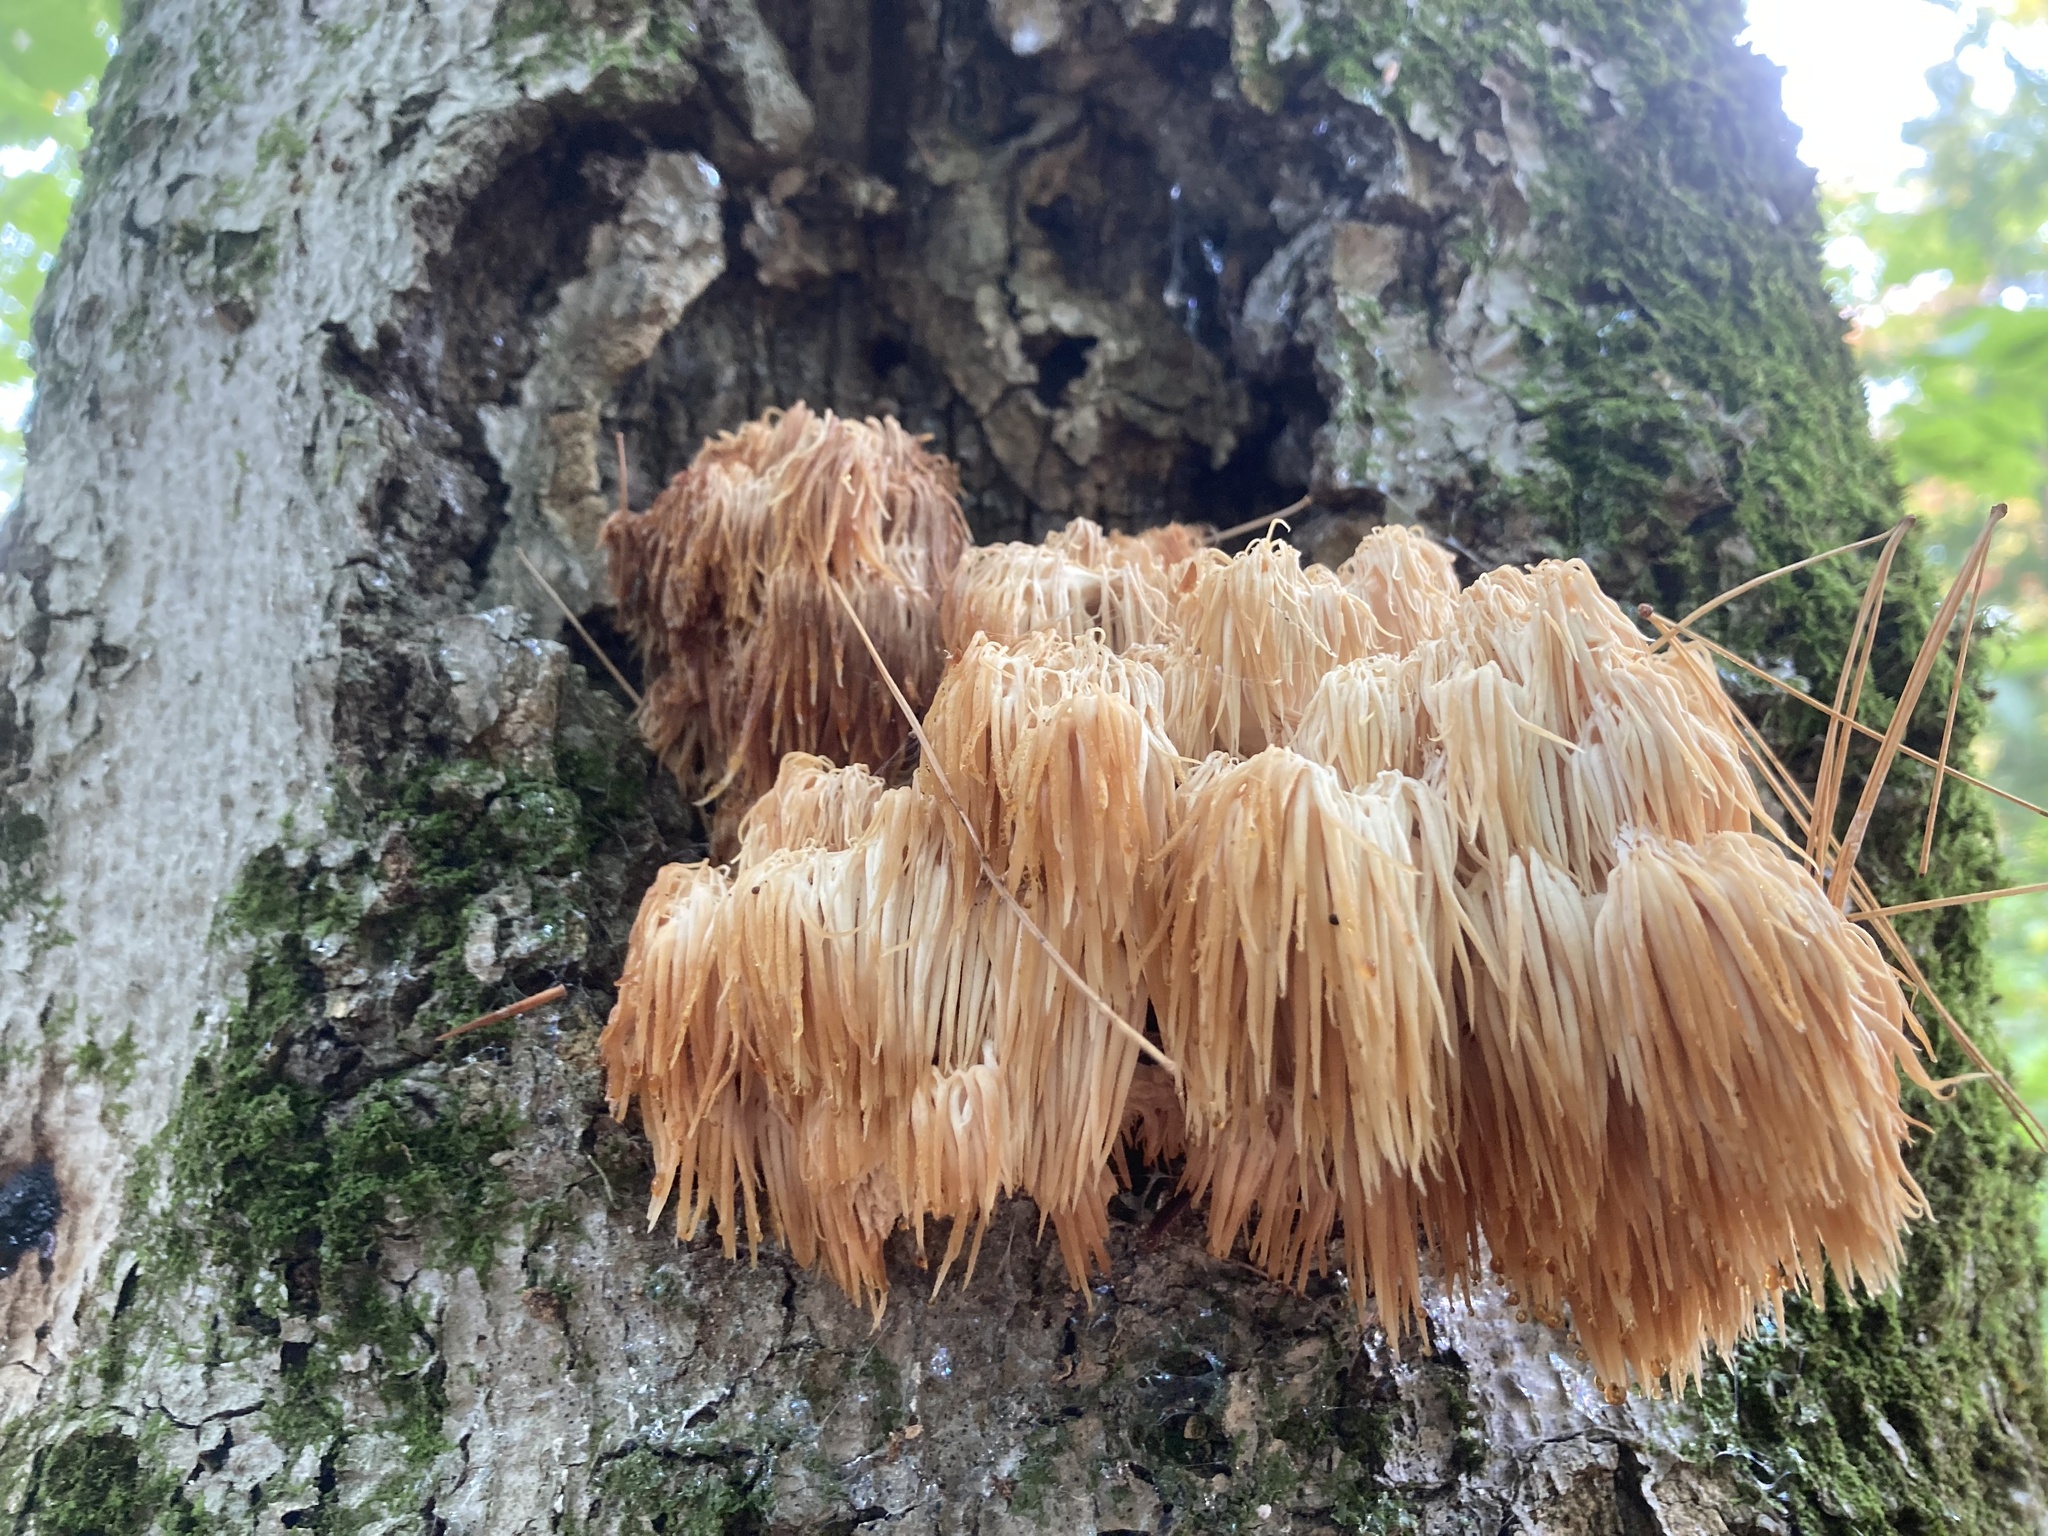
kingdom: Fungi
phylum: Basidiomycota
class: Agaricomycetes
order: Russulales
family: Hericiaceae
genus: Hericium
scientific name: Hericium americanum
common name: Bear's head tooth
